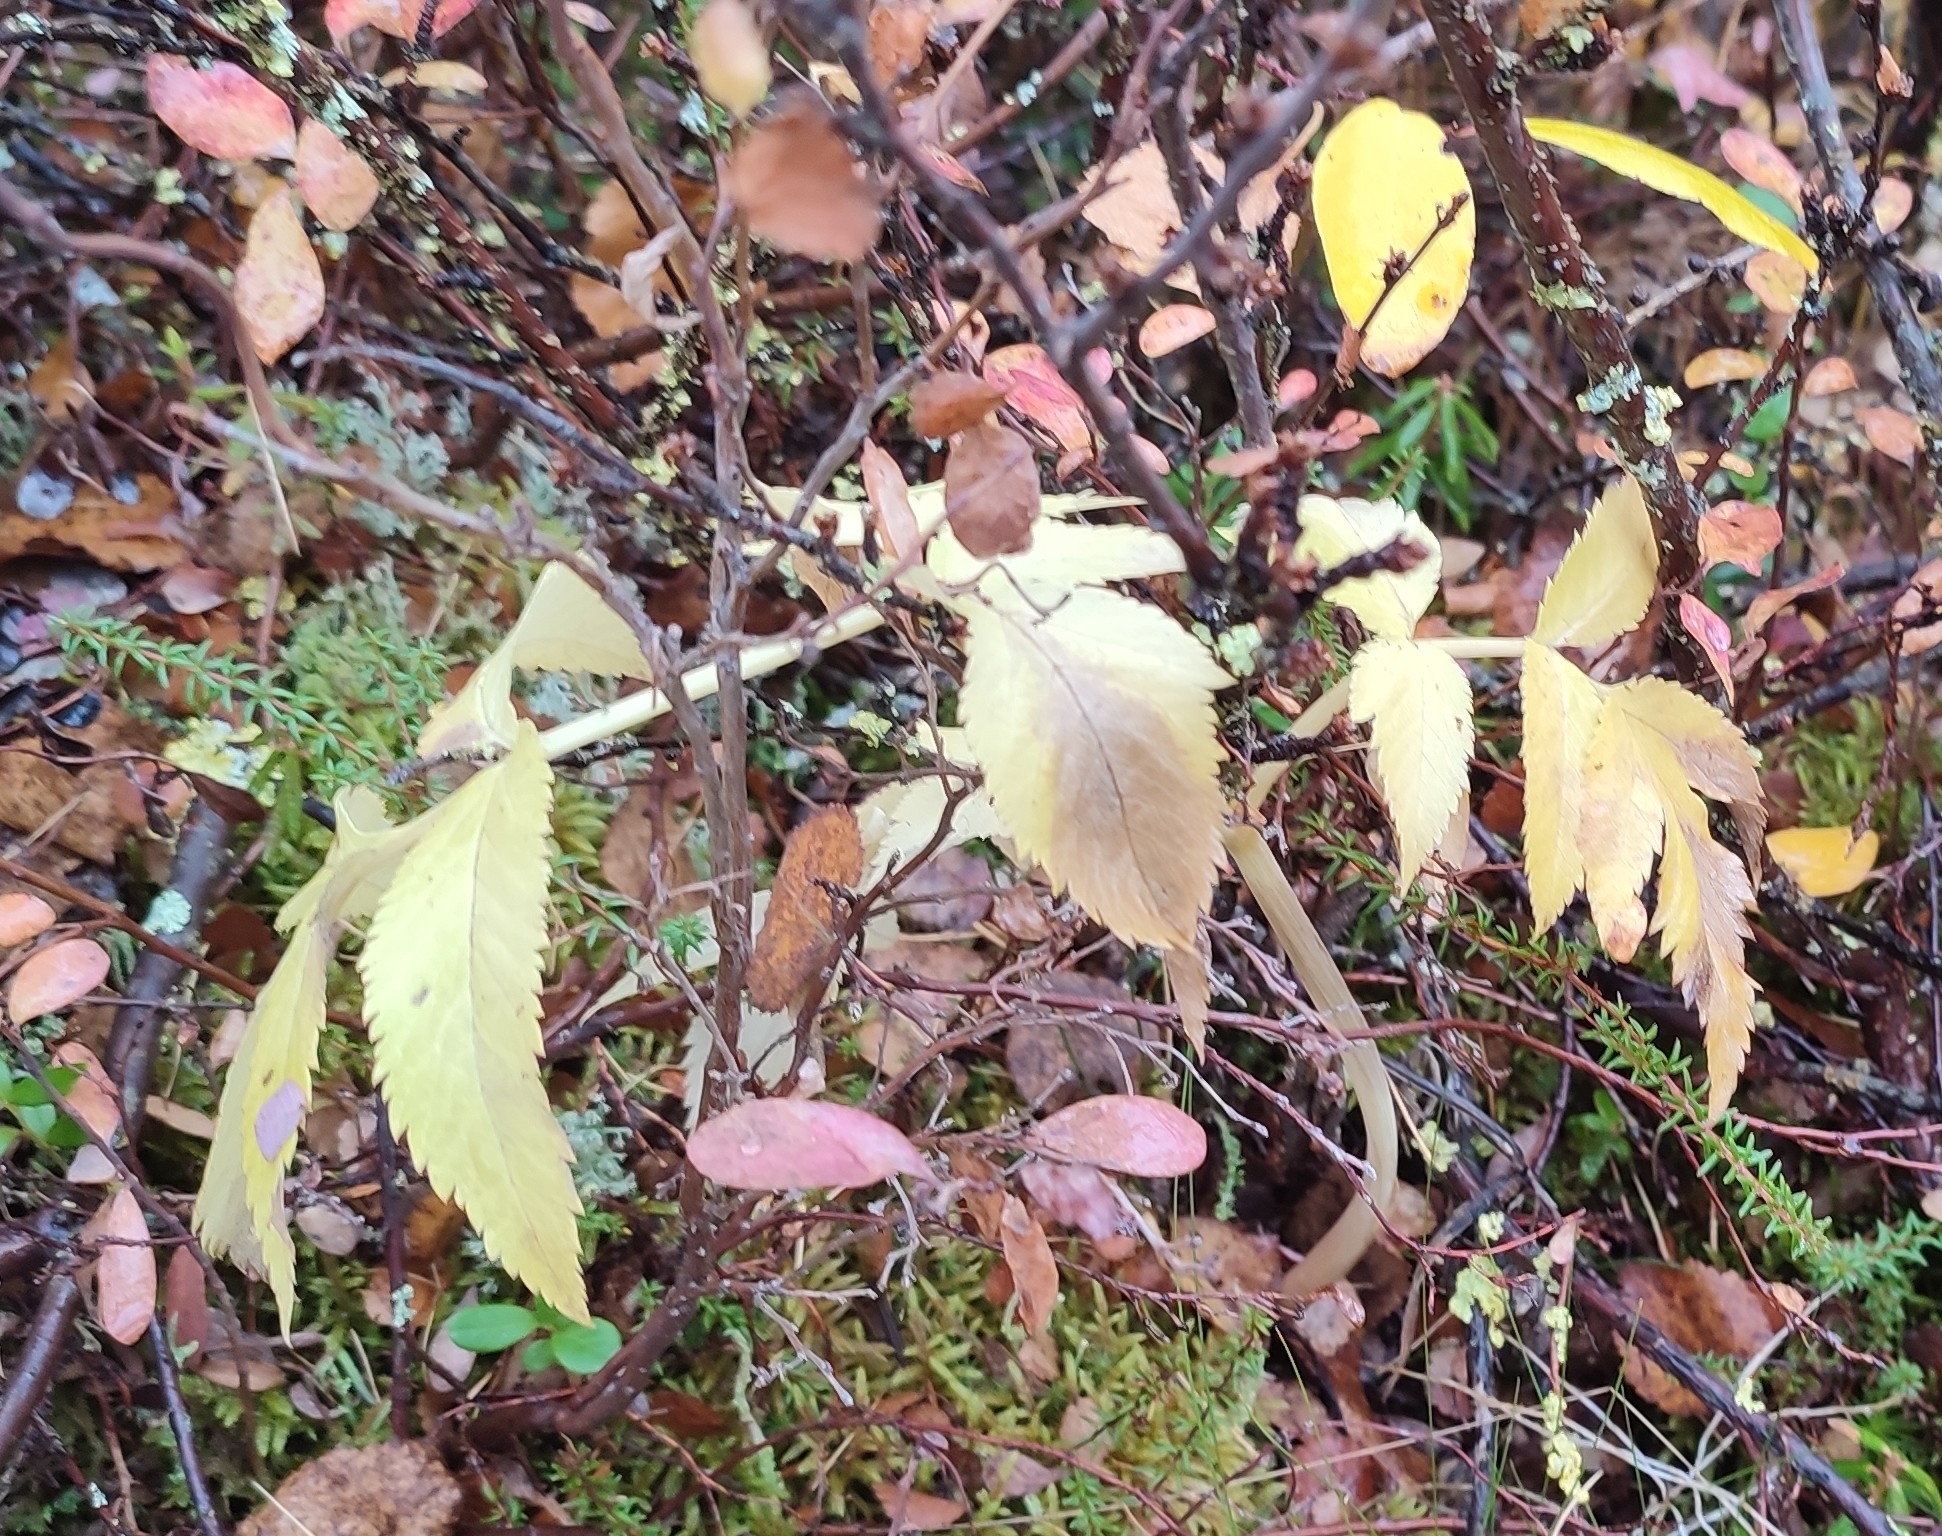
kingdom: Plantae
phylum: Tracheophyta
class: Magnoliopsida
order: Apiales
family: Apiaceae
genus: Angelica
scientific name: Angelica sylvestris
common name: Wild angelica
